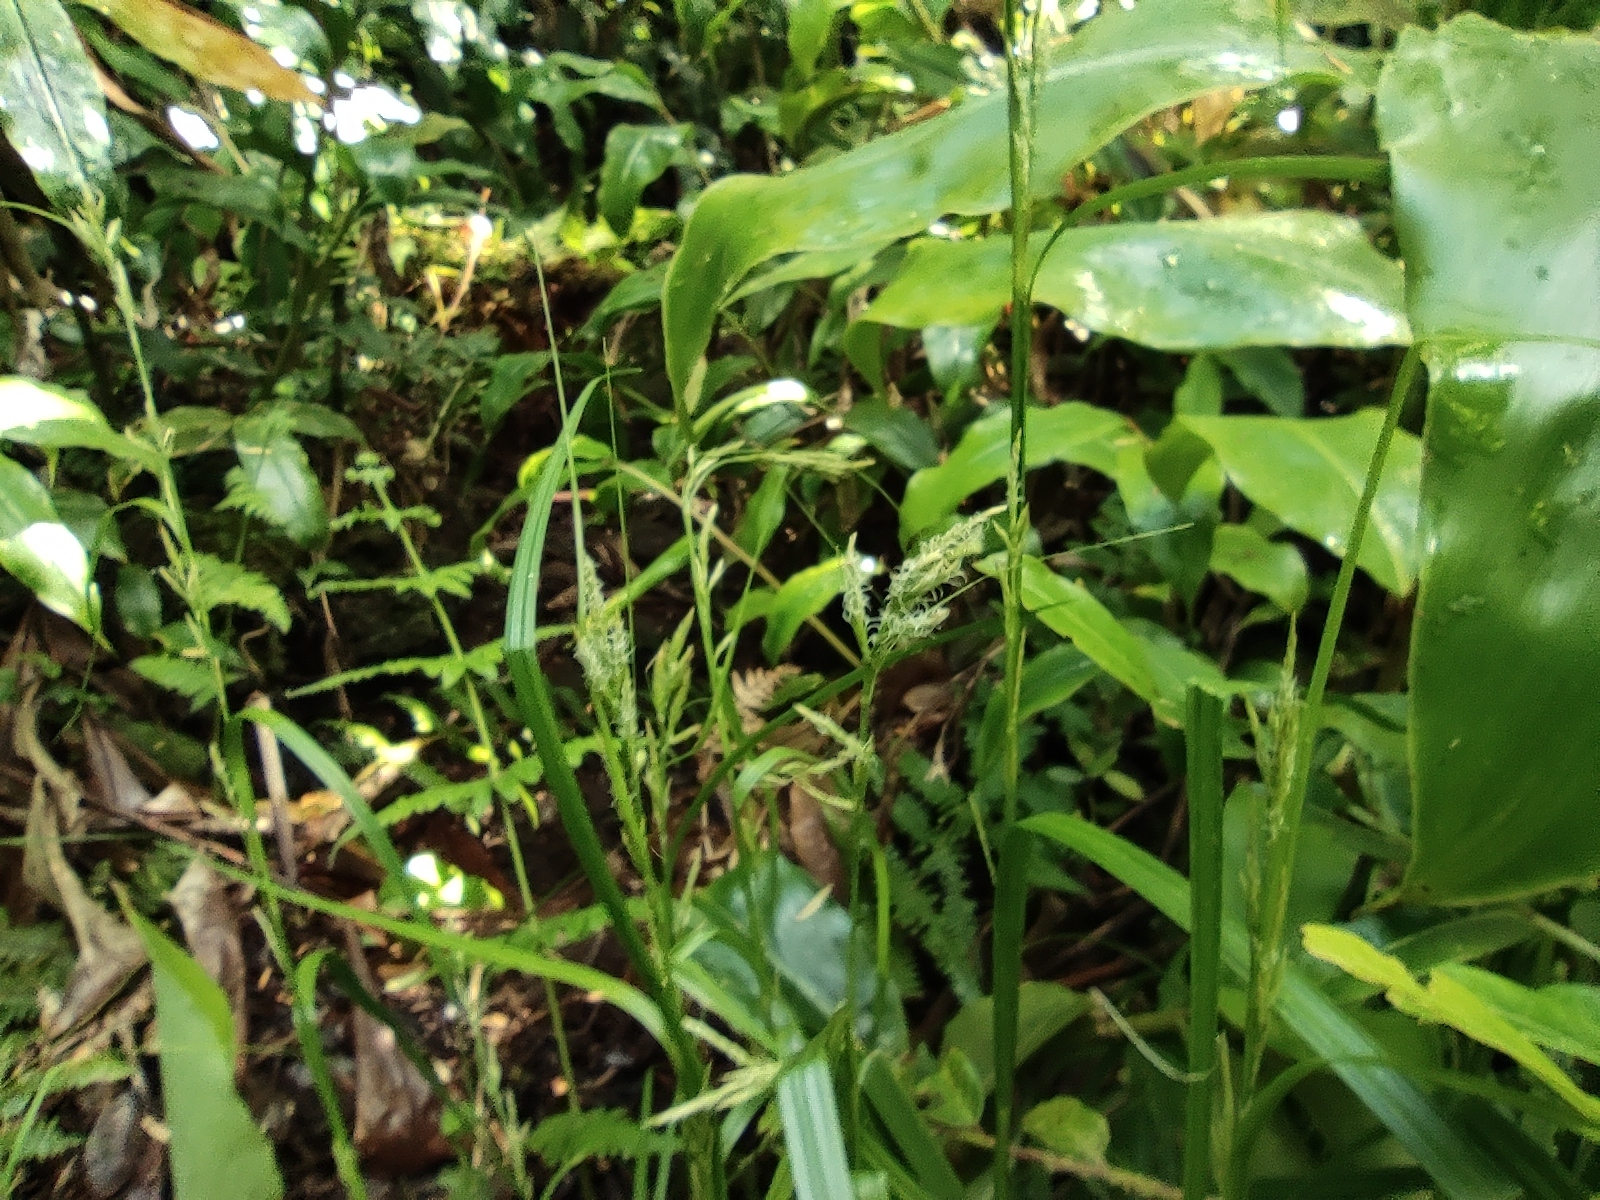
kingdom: Plantae
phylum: Tracheophyta
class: Liliopsida
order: Poales
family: Cyperaceae
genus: Carex
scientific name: Carex ramosa
